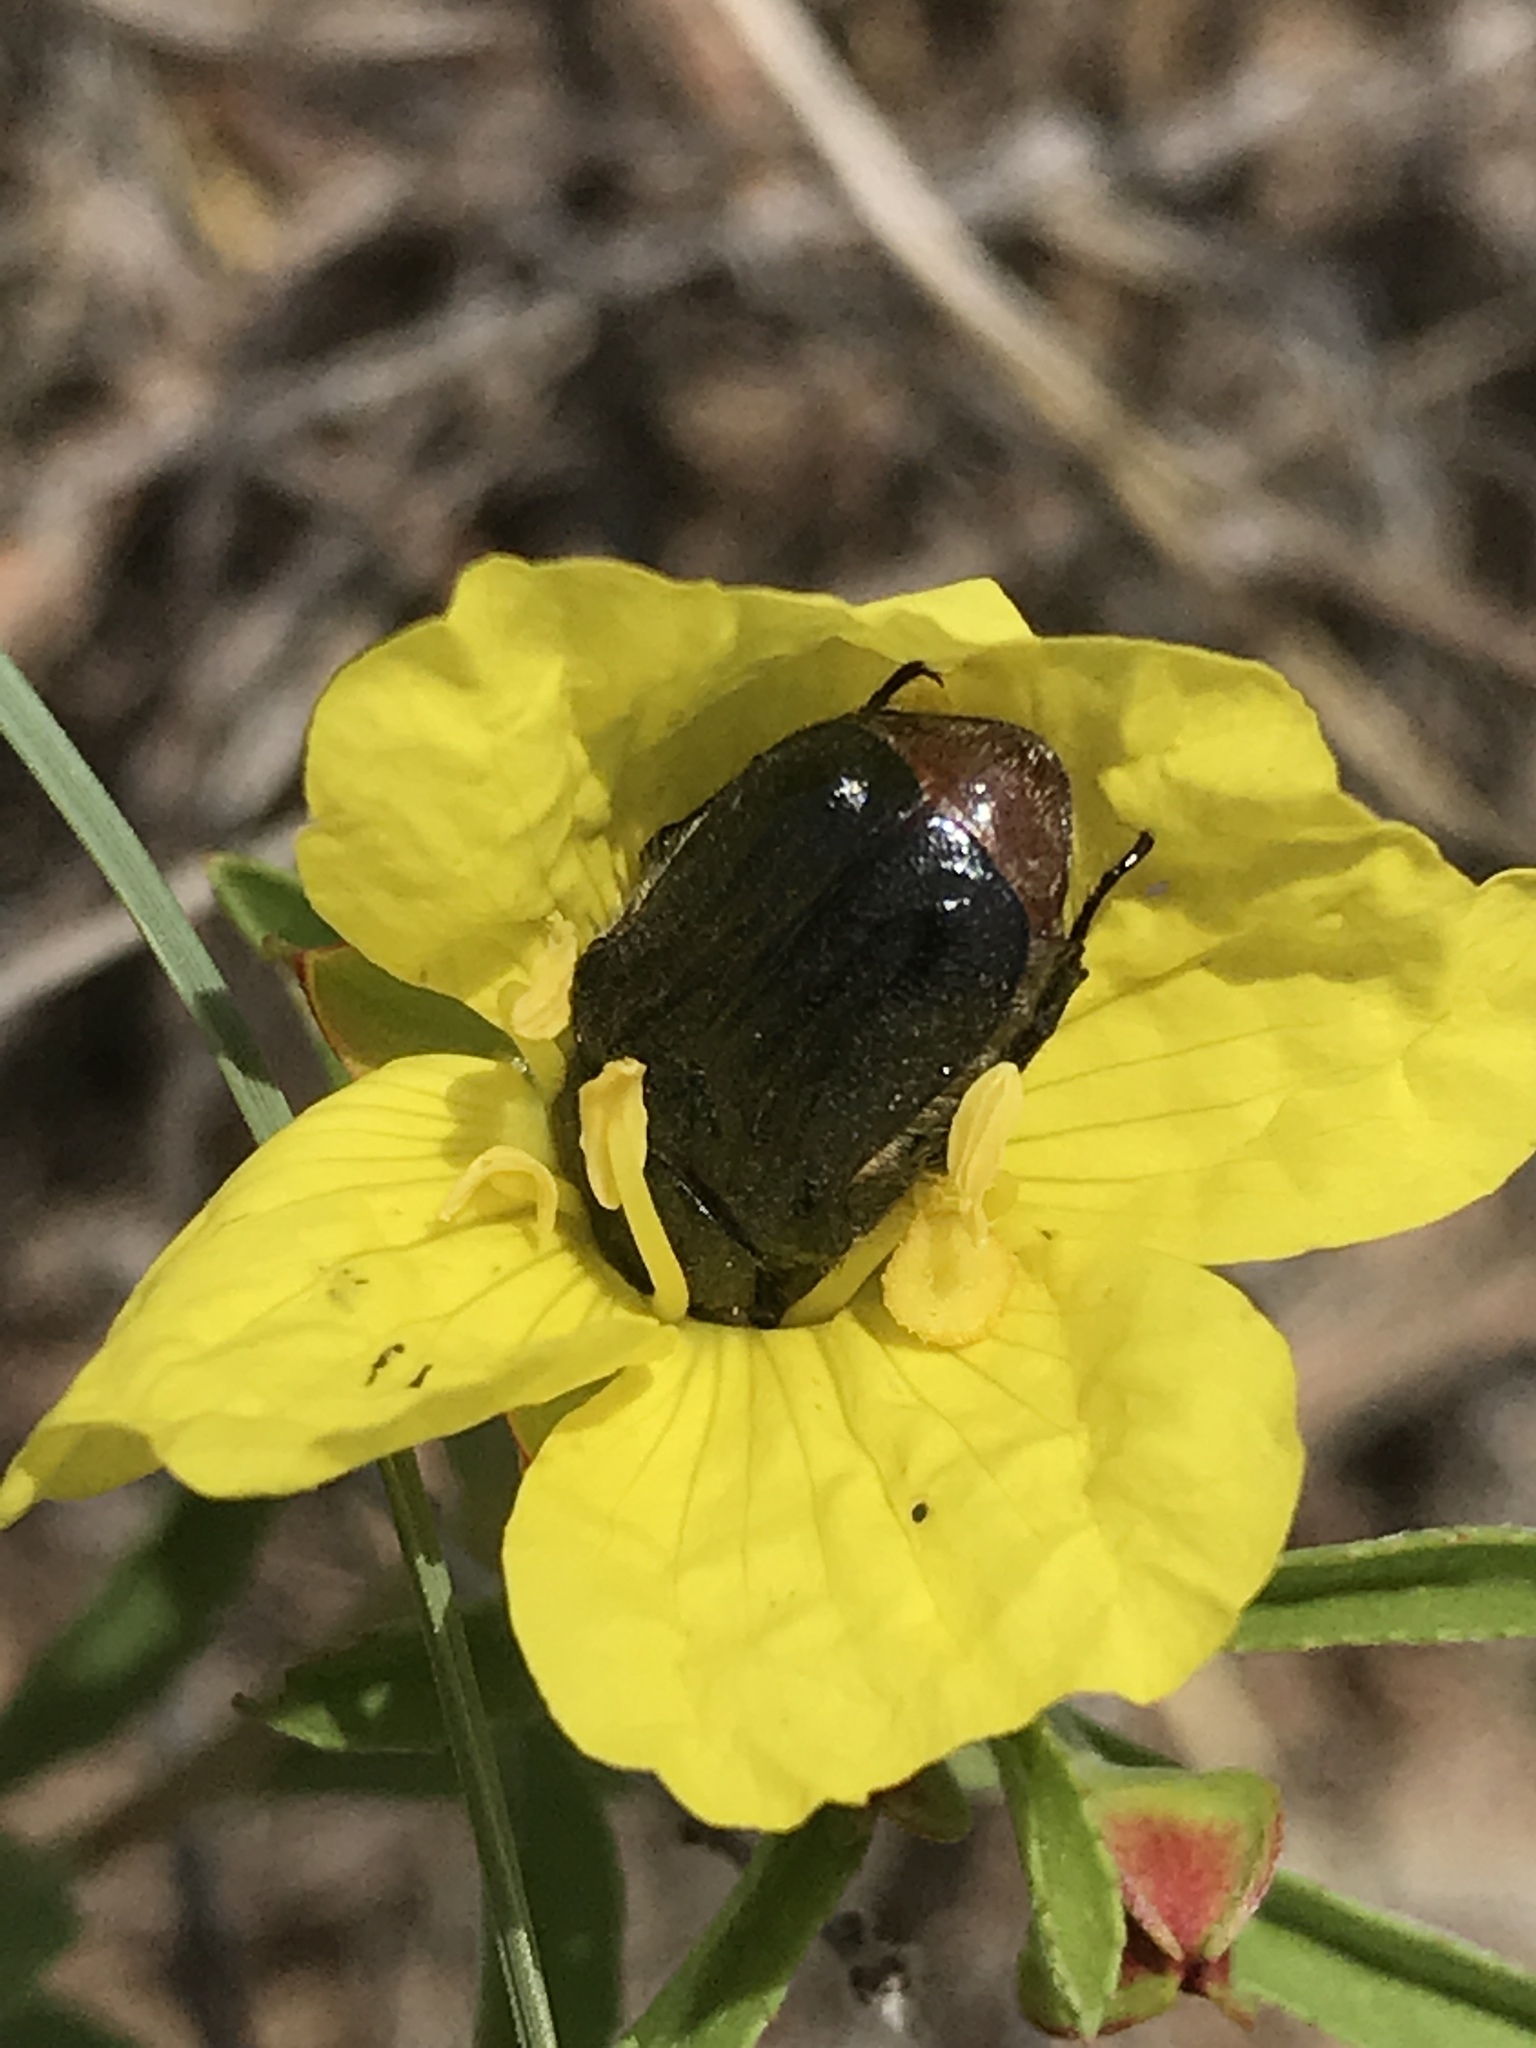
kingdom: Animalia
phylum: Arthropoda
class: Insecta
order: Coleoptera
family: Scarabaeidae
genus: Euphoria
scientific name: Euphoria kernii
